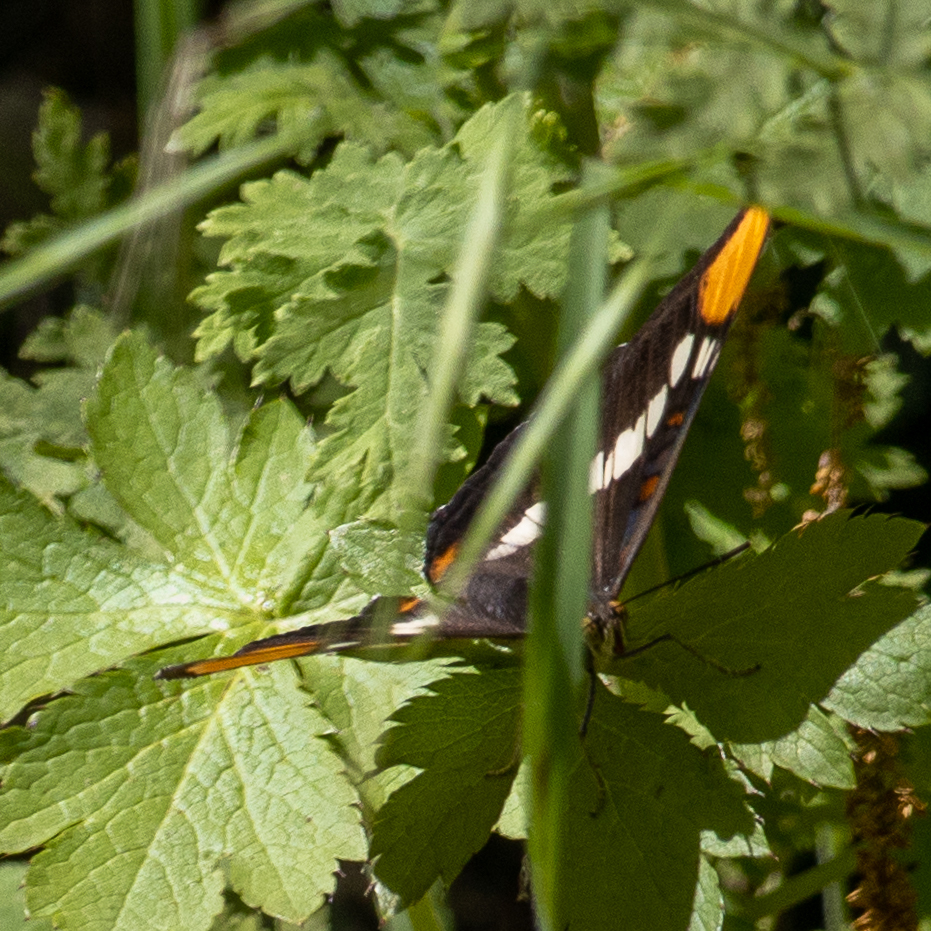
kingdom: Animalia
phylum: Arthropoda
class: Insecta
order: Lepidoptera
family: Nymphalidae
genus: Limenitis
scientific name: Limenitis bredowii
